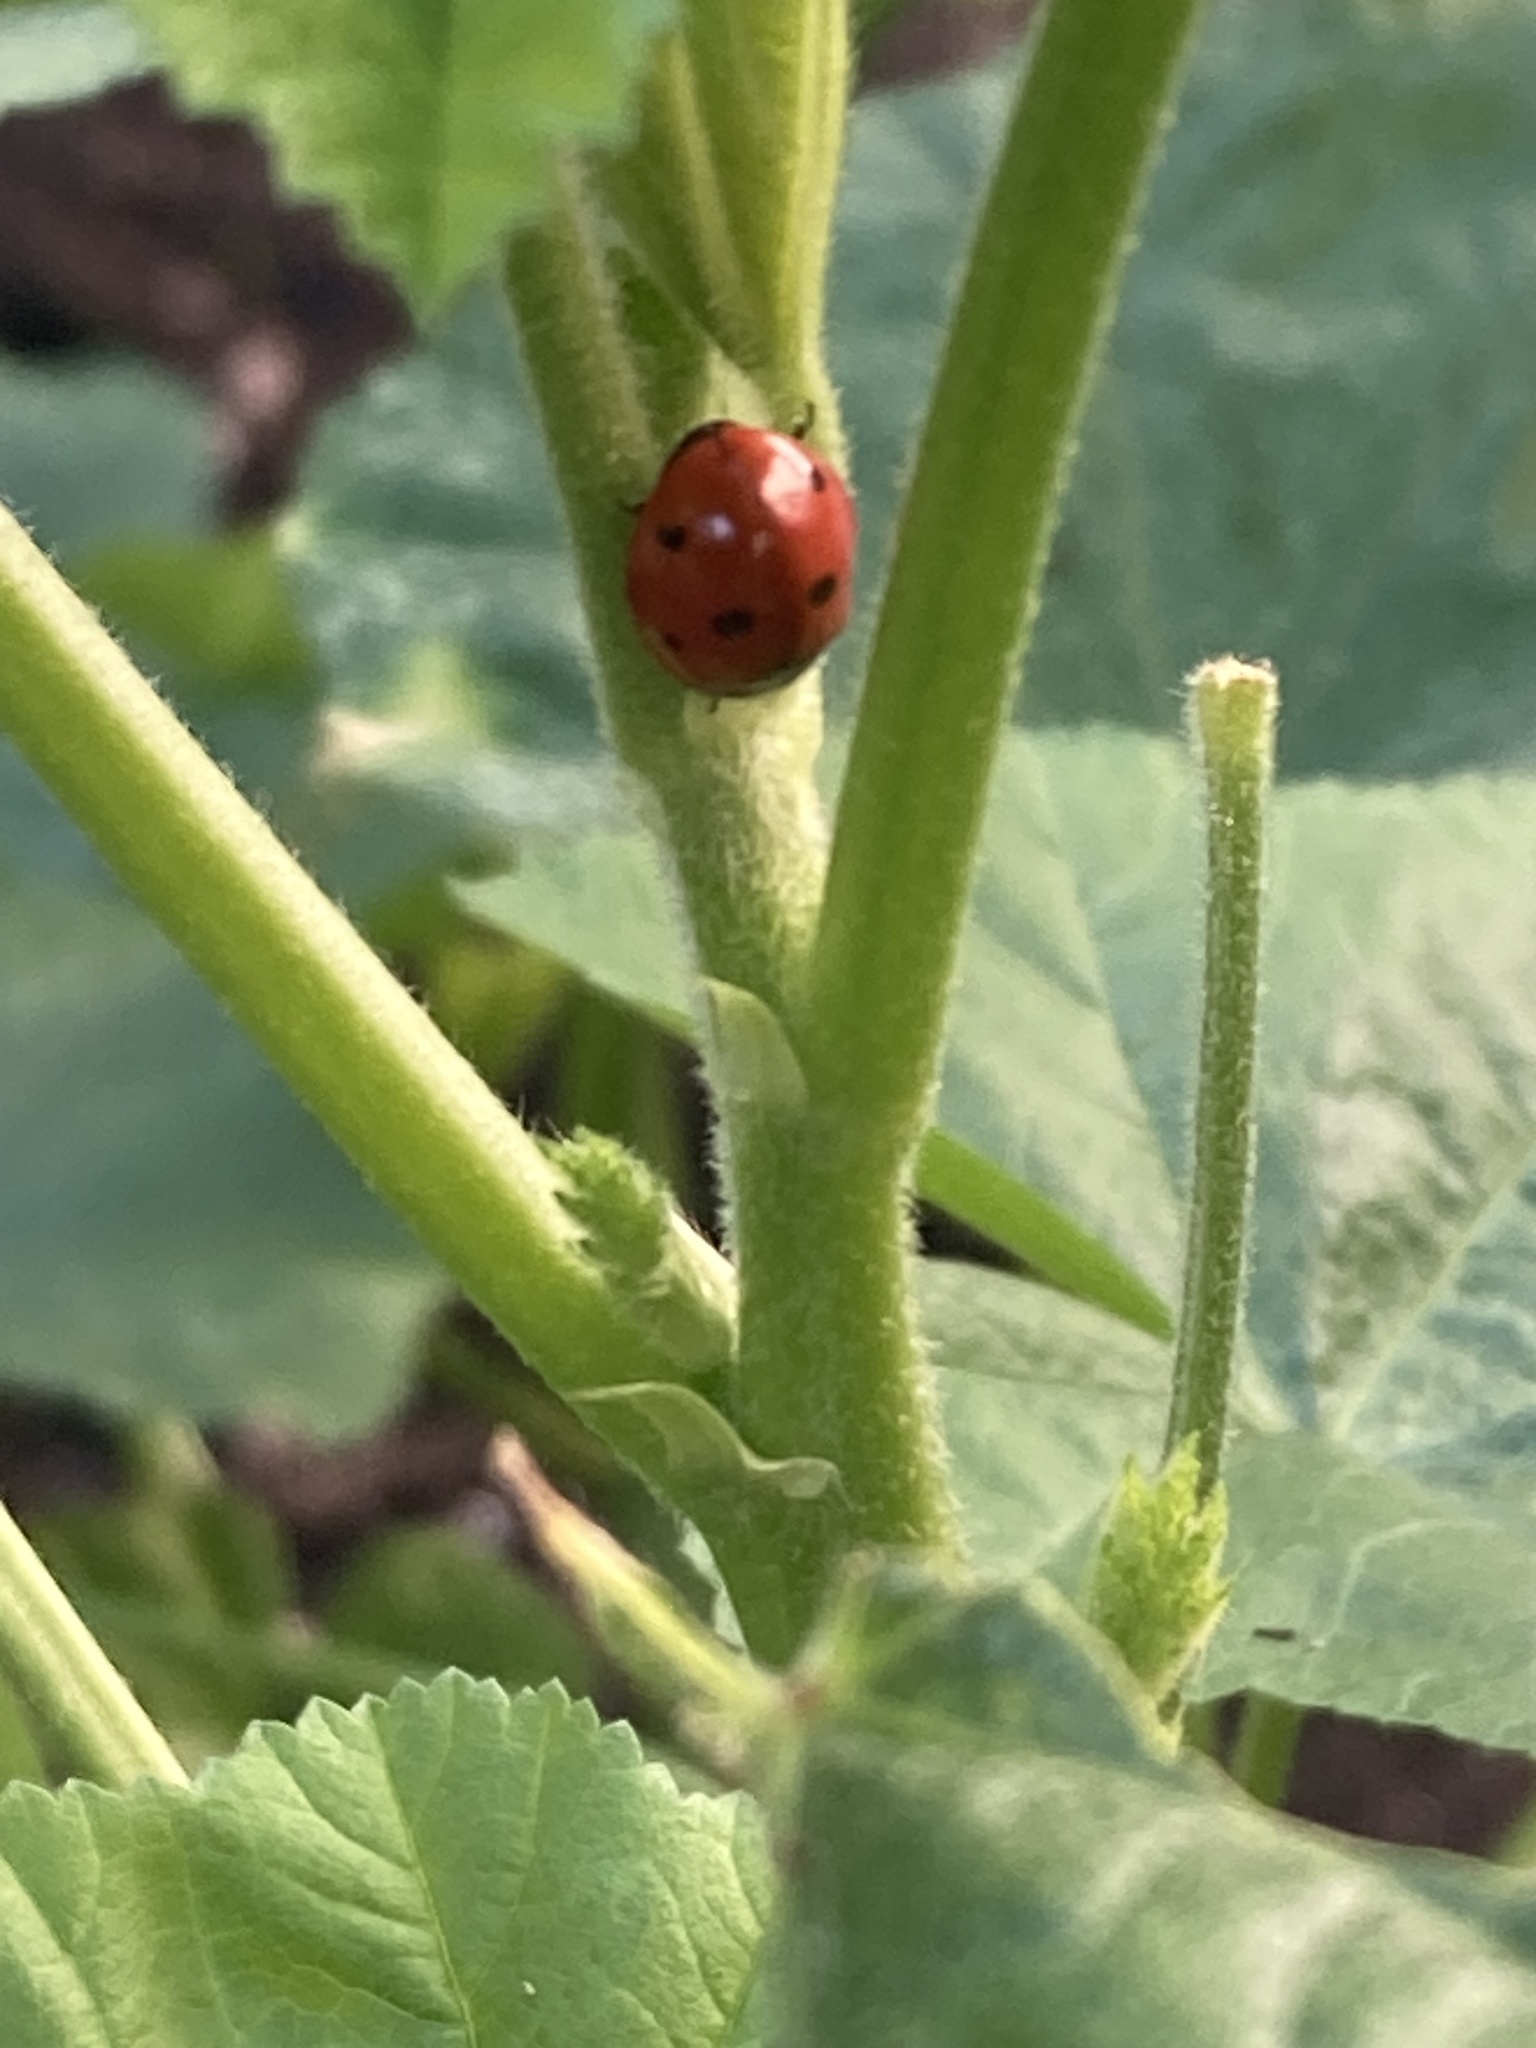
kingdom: Animalia
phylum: Arthropoda
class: Insecta
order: Coleoptera
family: Coccinellidae
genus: Coccinella
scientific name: Coccinella septempunctata
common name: Sevenspotted lady beetle
